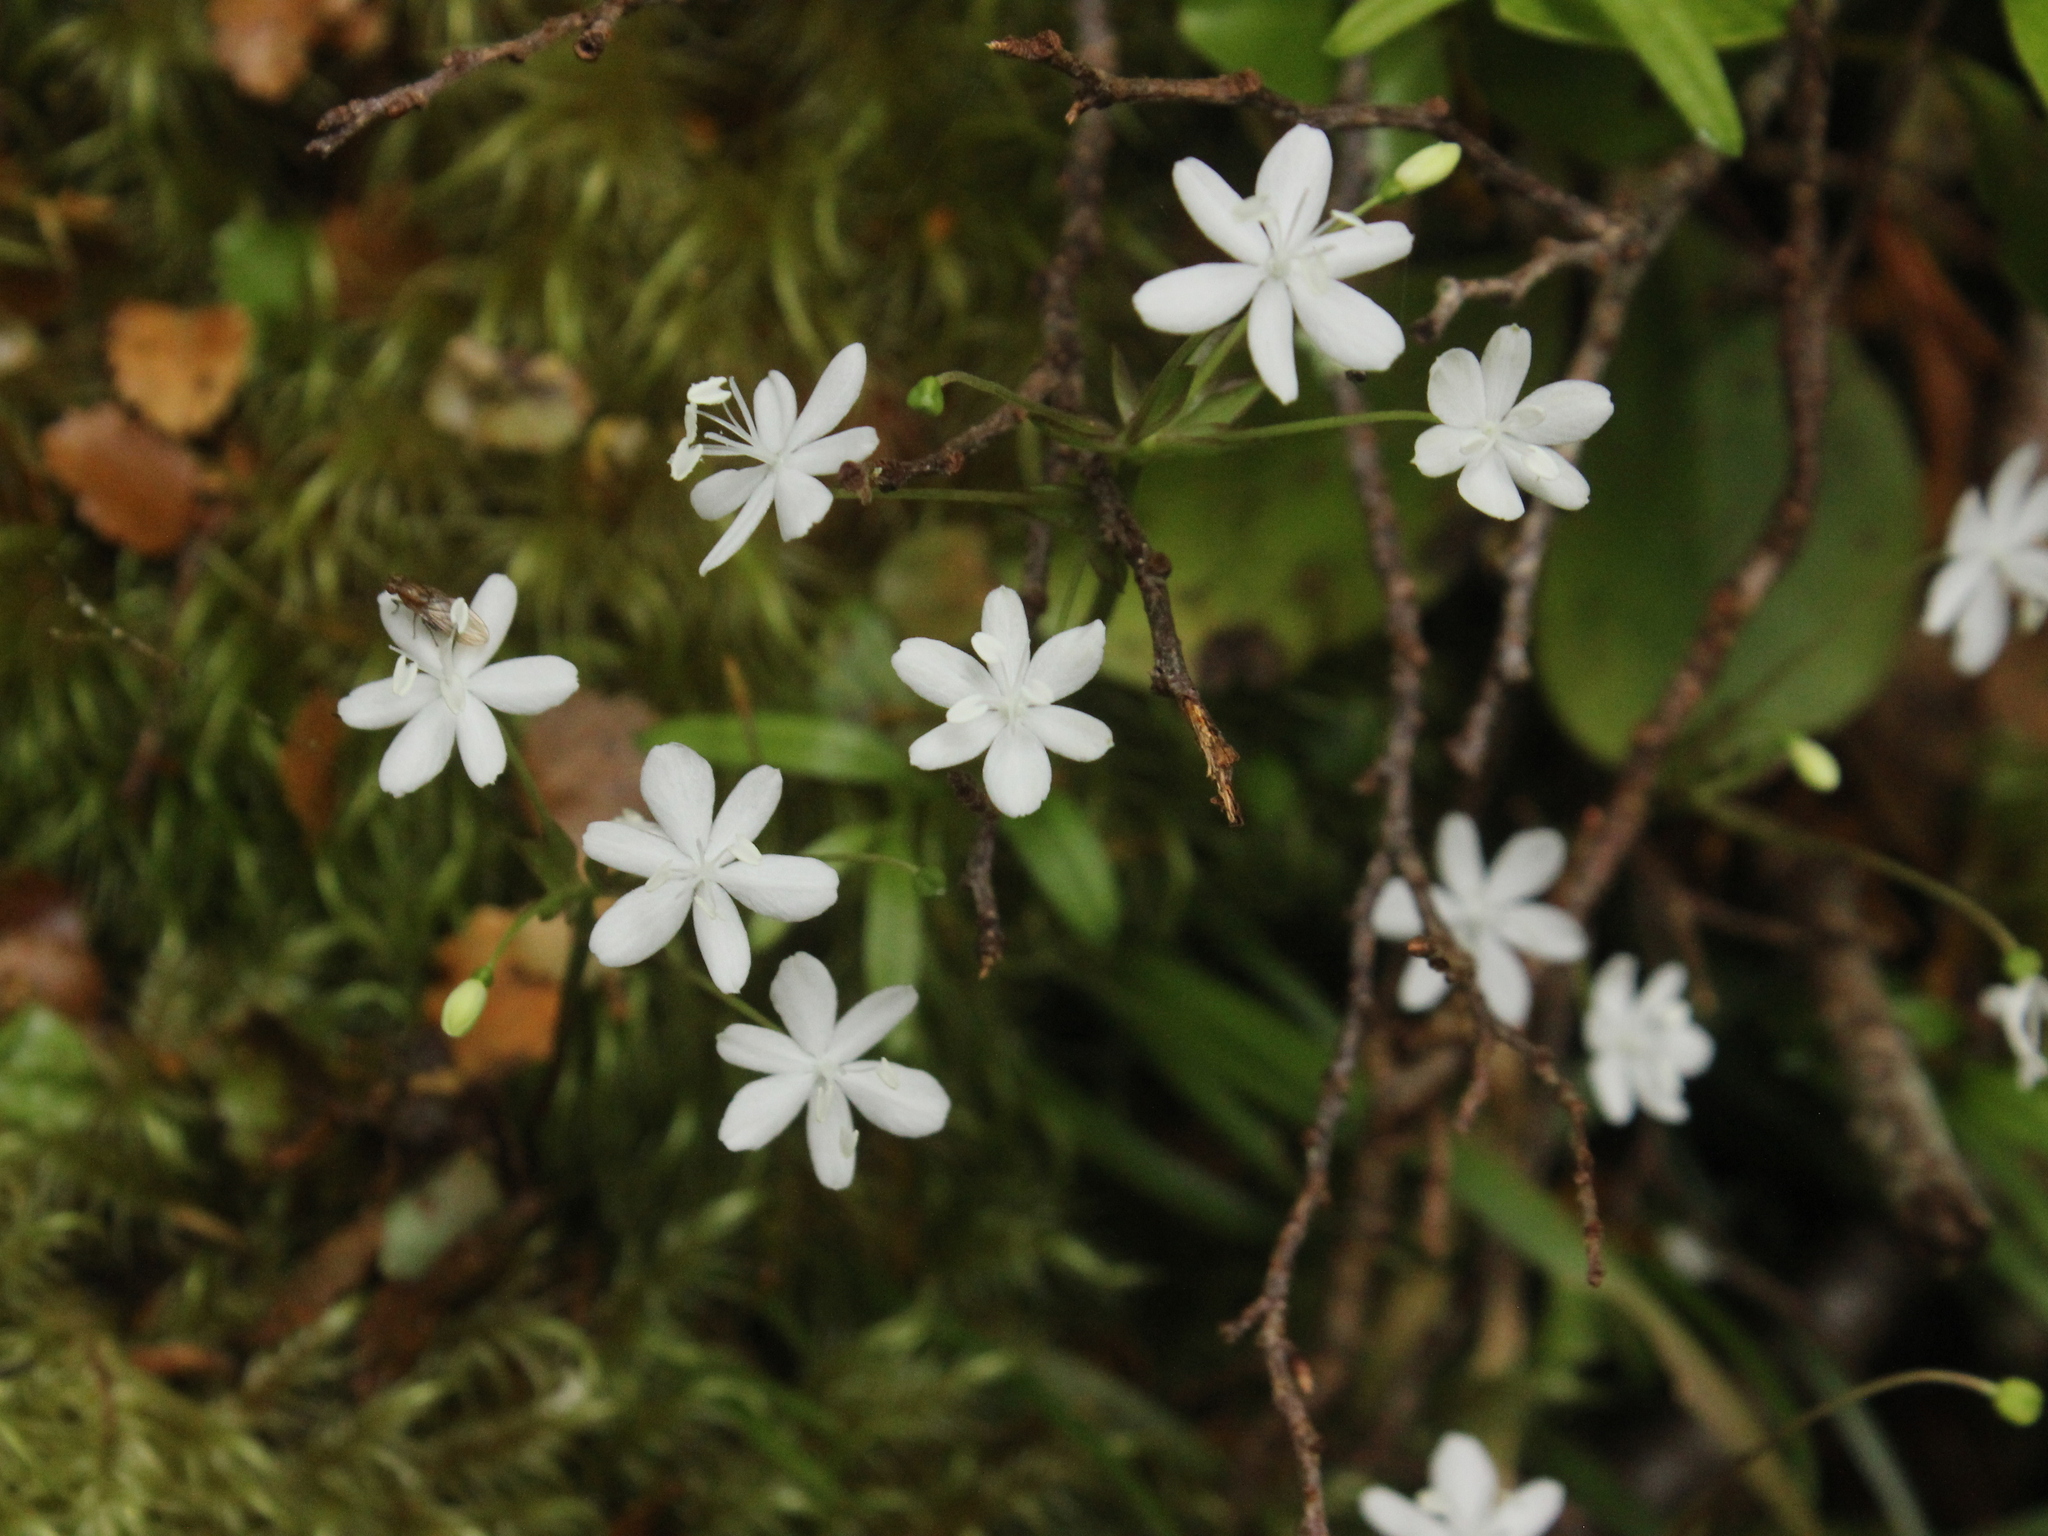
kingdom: Plantae
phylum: Tracheophyta
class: Liliopsida
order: Asparagales
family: Iridaceae
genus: Libertia
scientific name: Libertia micrantha
